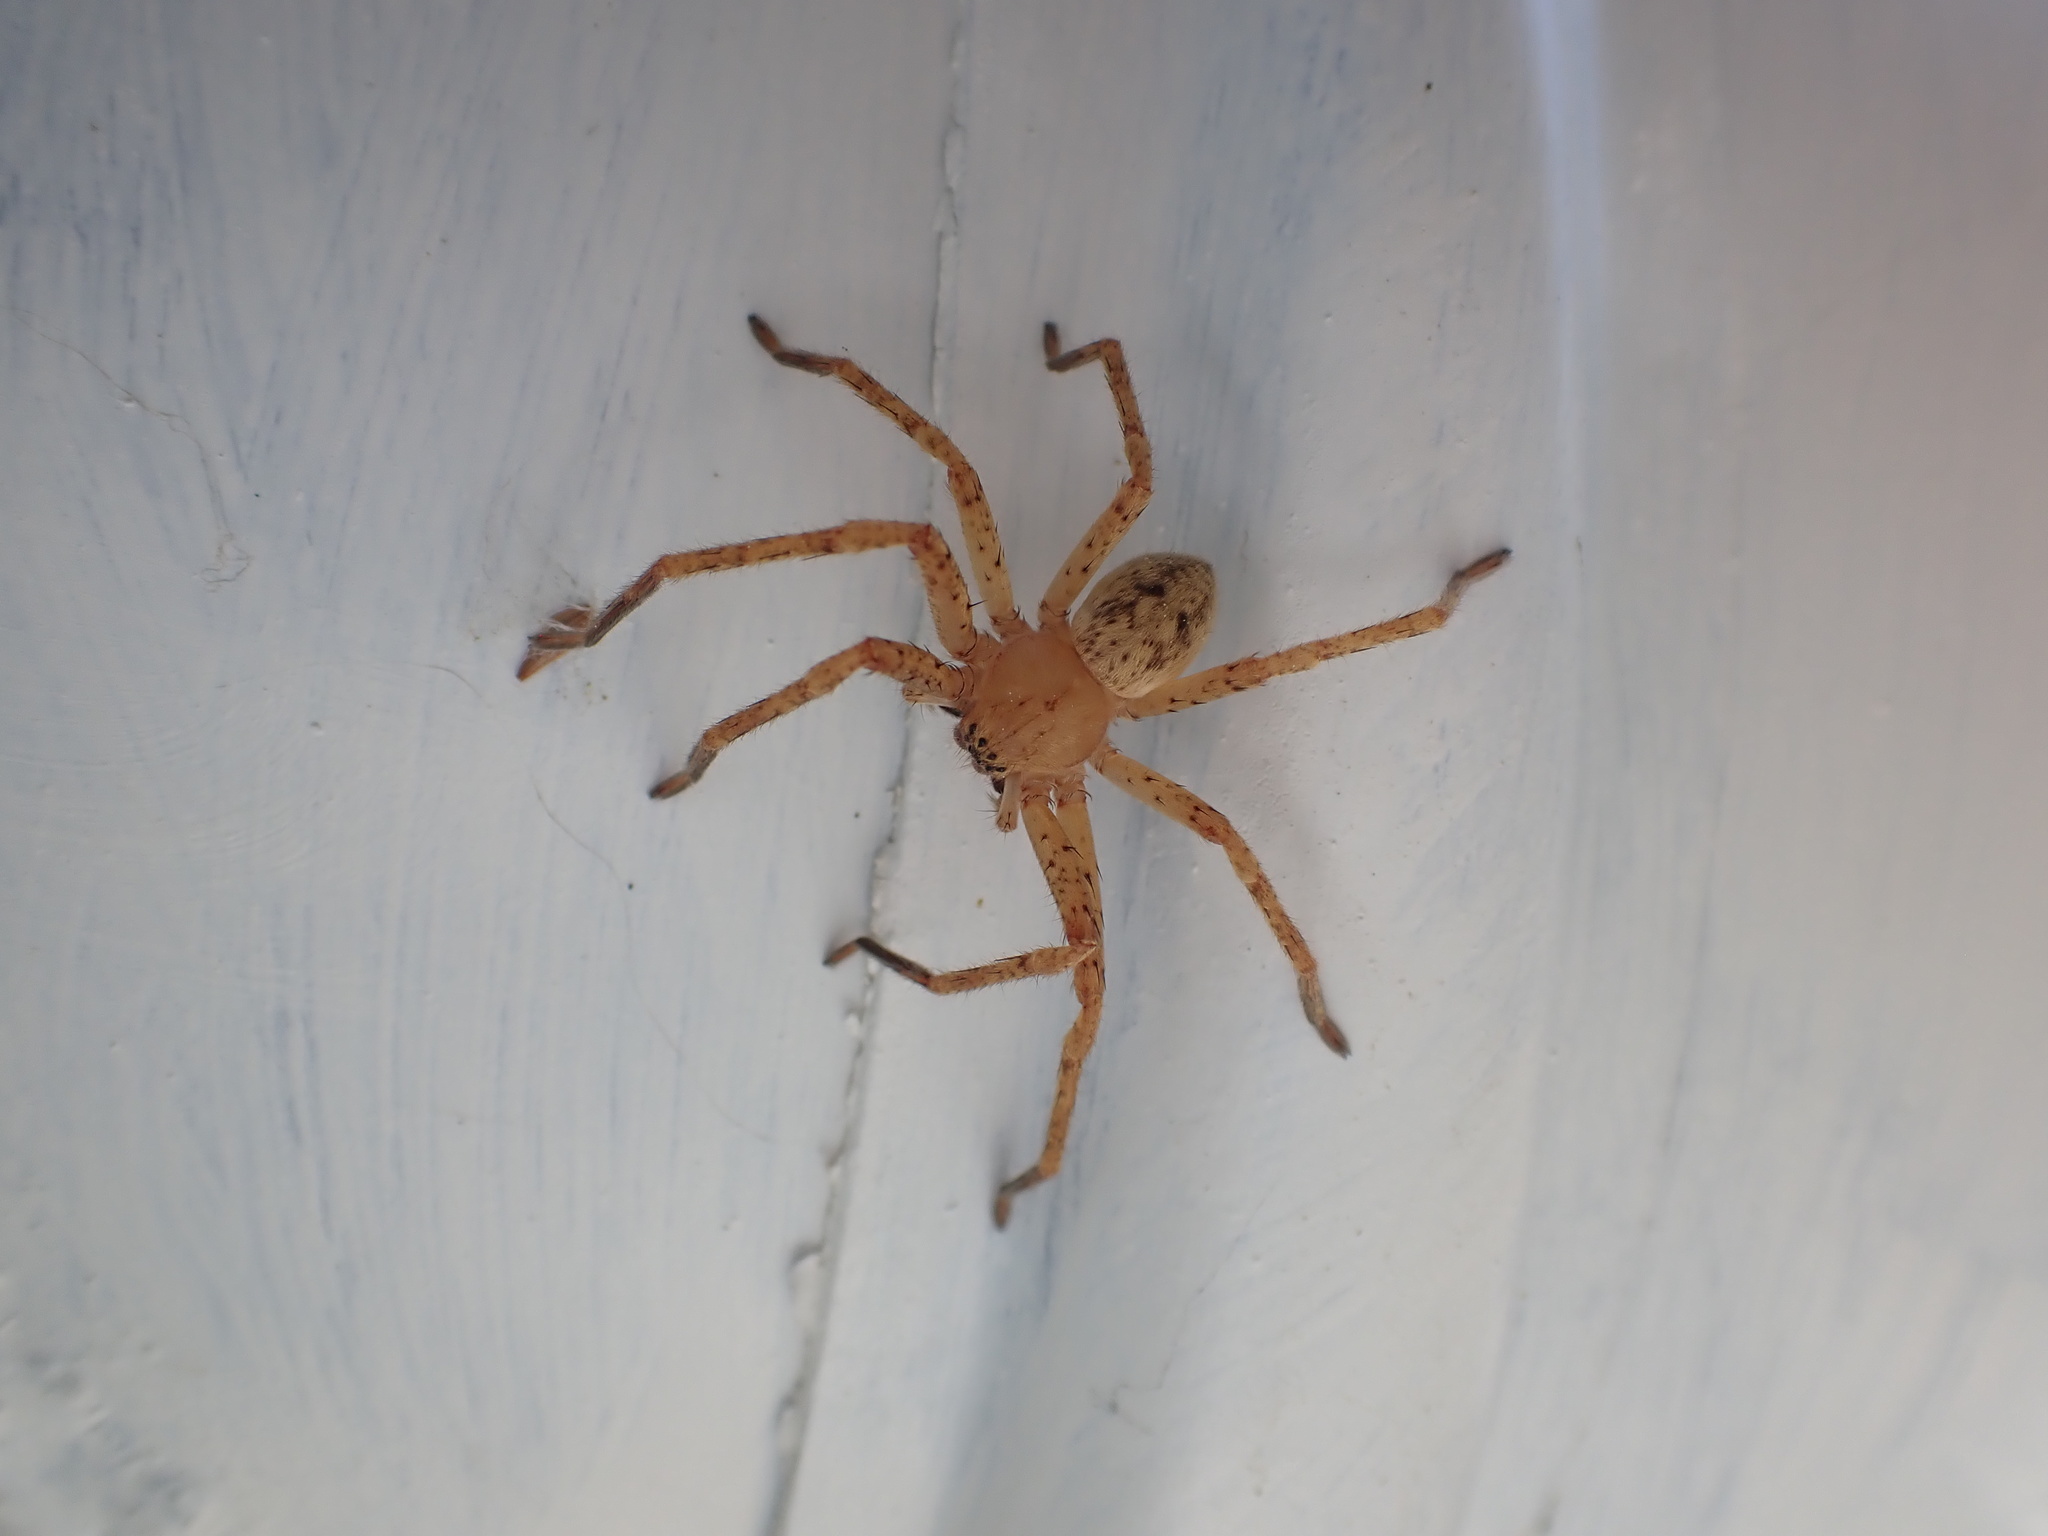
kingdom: Animalia
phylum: Arthropoda
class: Arachnida
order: Araneae
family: Sparassidae
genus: Olios
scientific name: Olios argelasius
